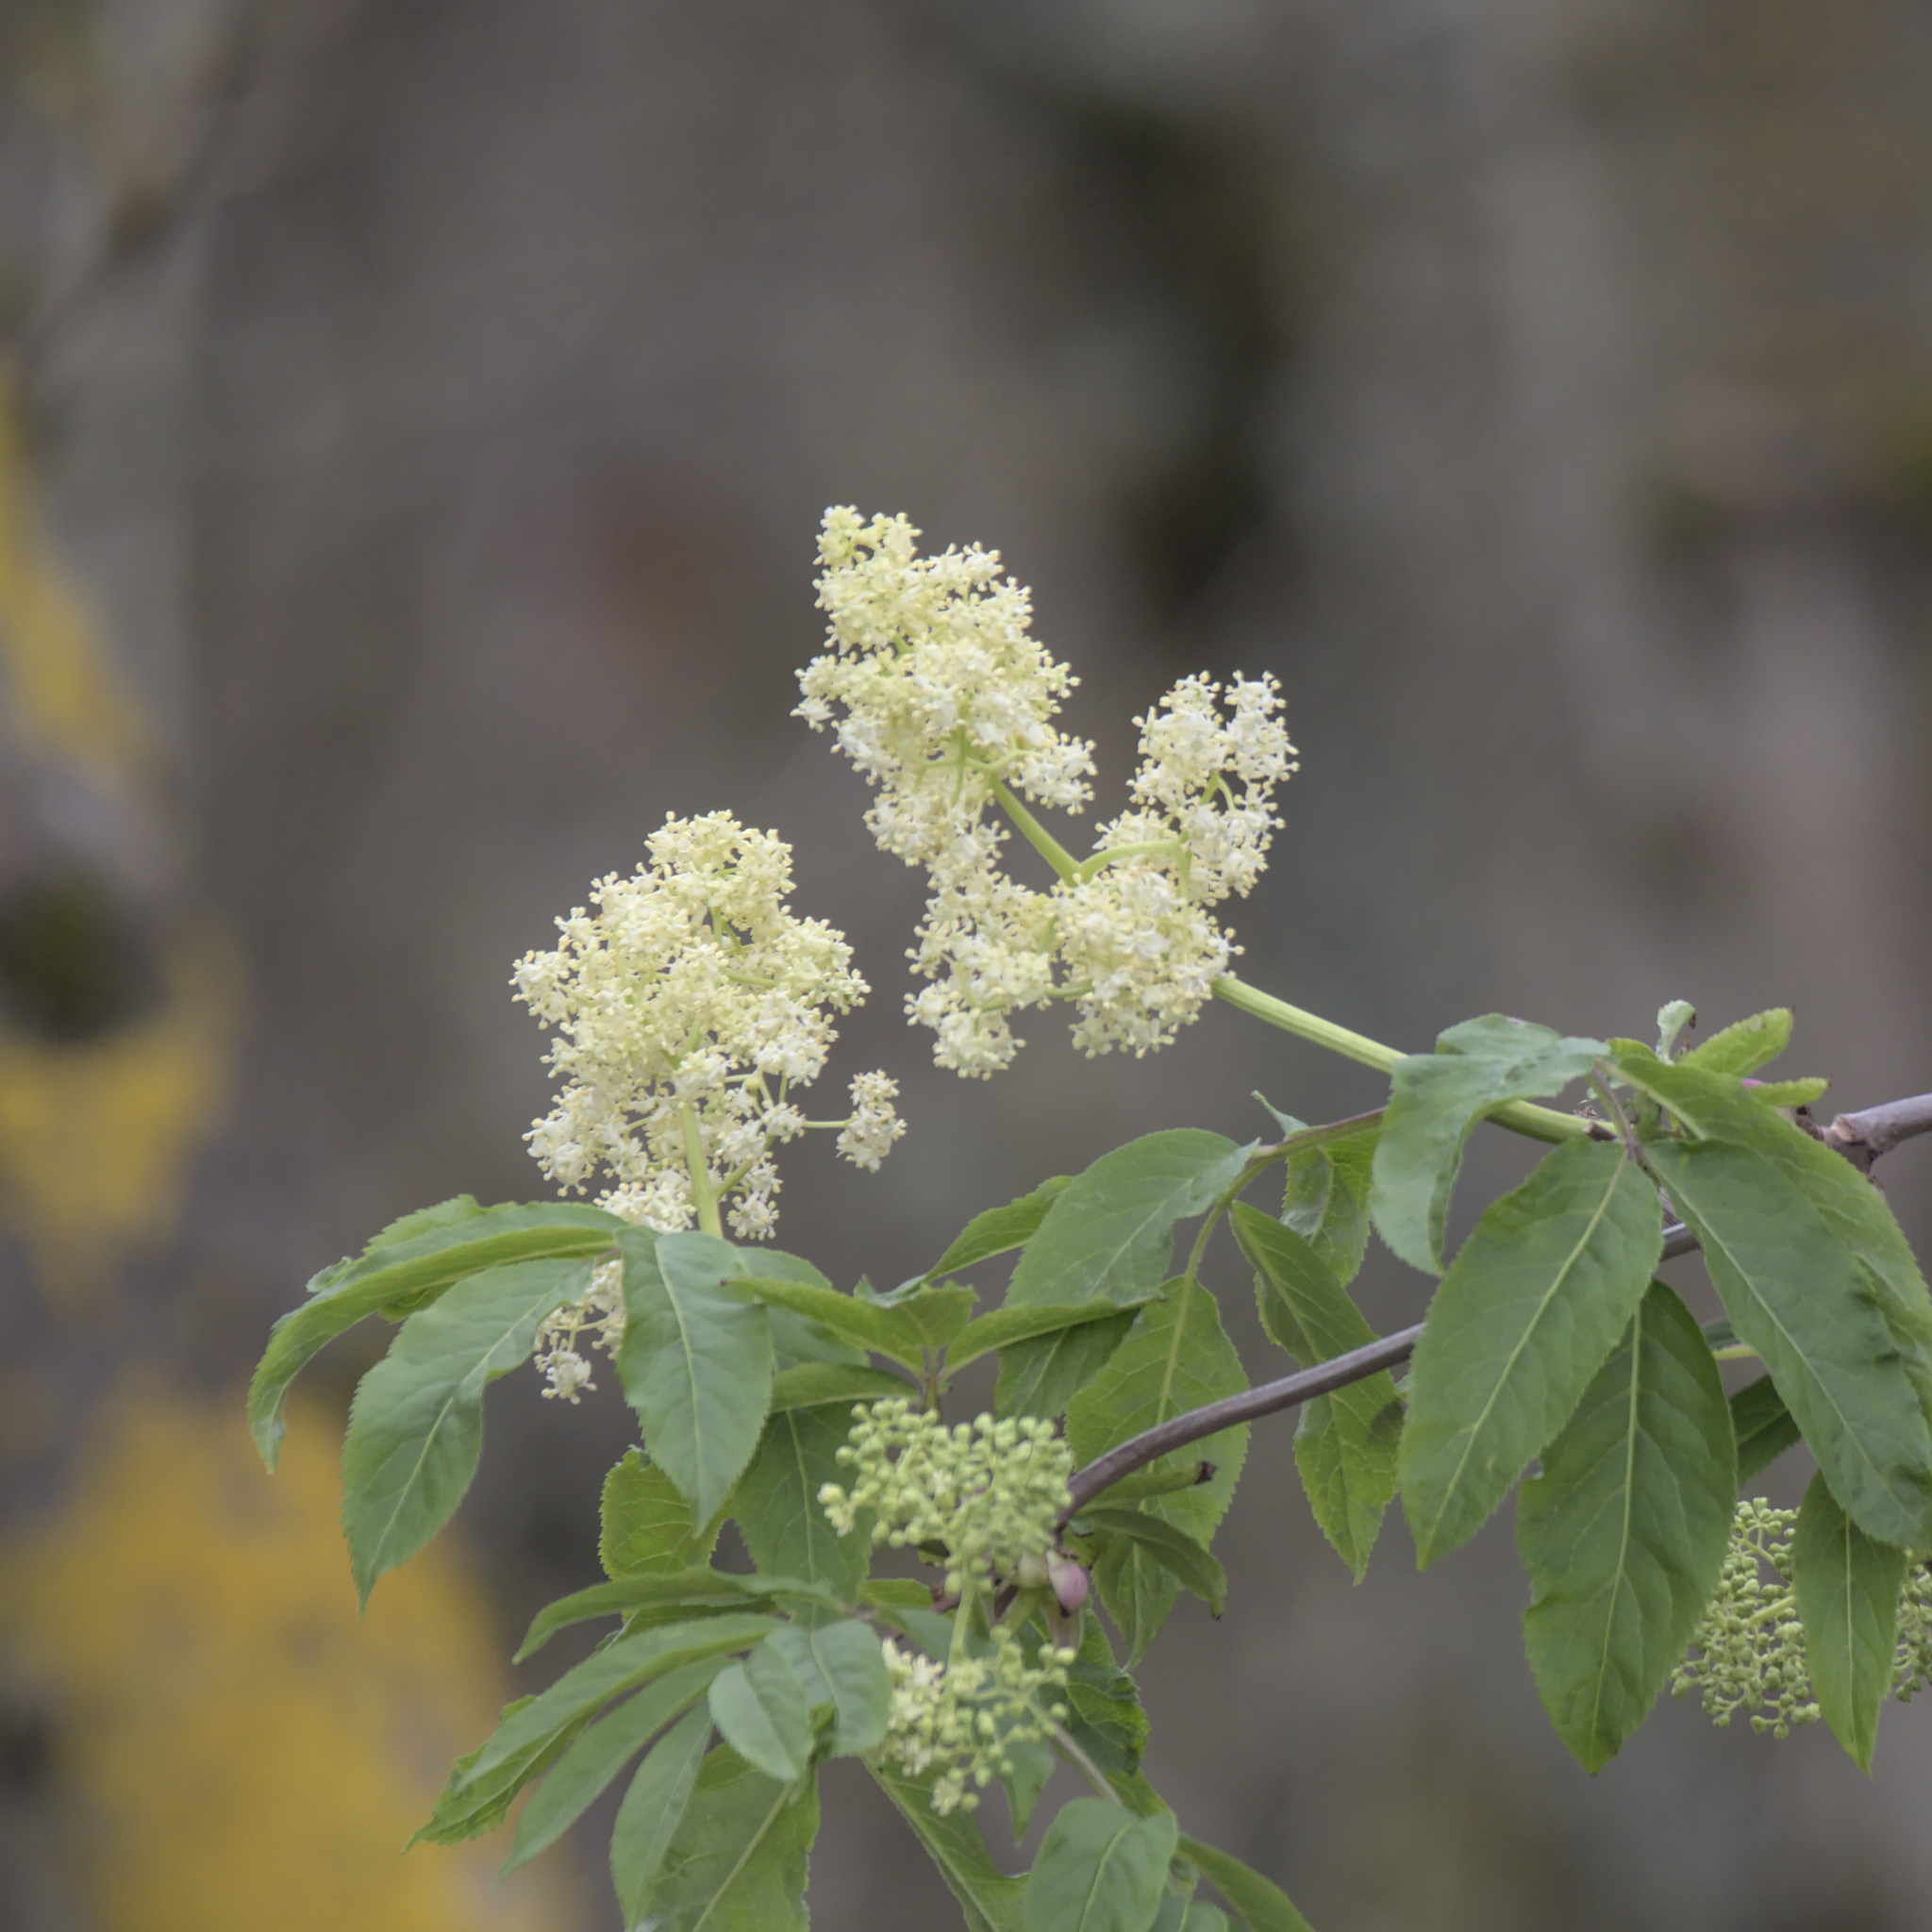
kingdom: Plantae
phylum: Tracheophyta
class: Magnoliopsida
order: Dipsacales
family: Viburnaceae
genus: Sambucus
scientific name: Sambucus racemosa
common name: Red-berried elder
